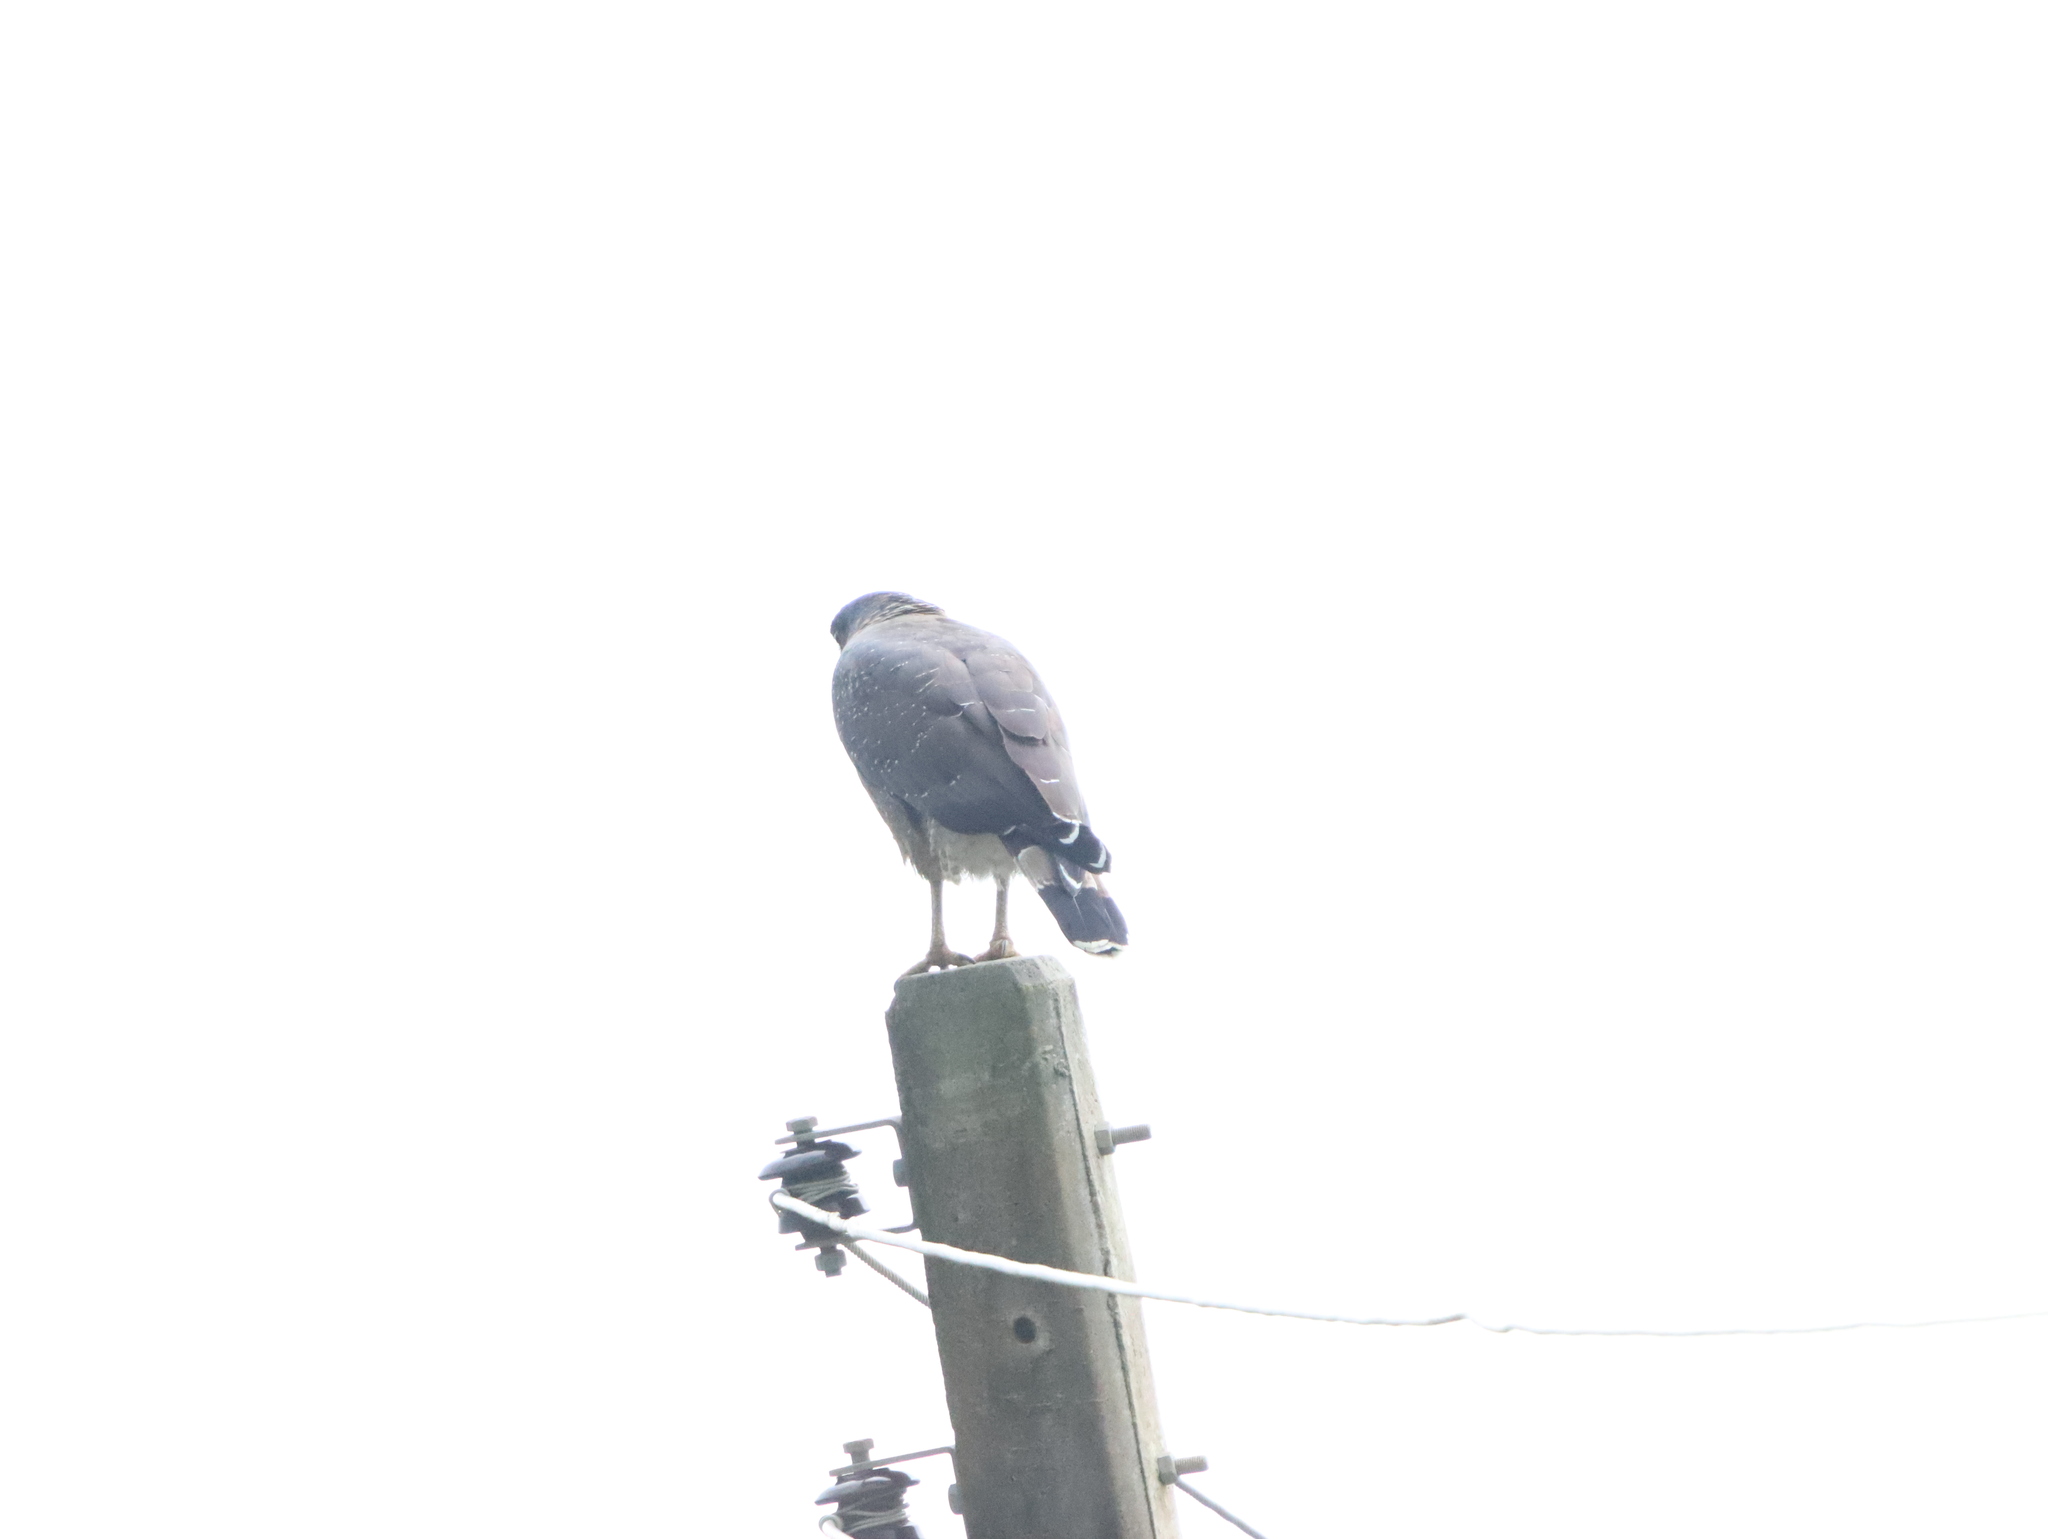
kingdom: Animalia
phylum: Chordata
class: Aves
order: Accipitriformes
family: Accipitridae
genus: Spilornis
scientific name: Spilornis cheela
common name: Crested serpent eagle
